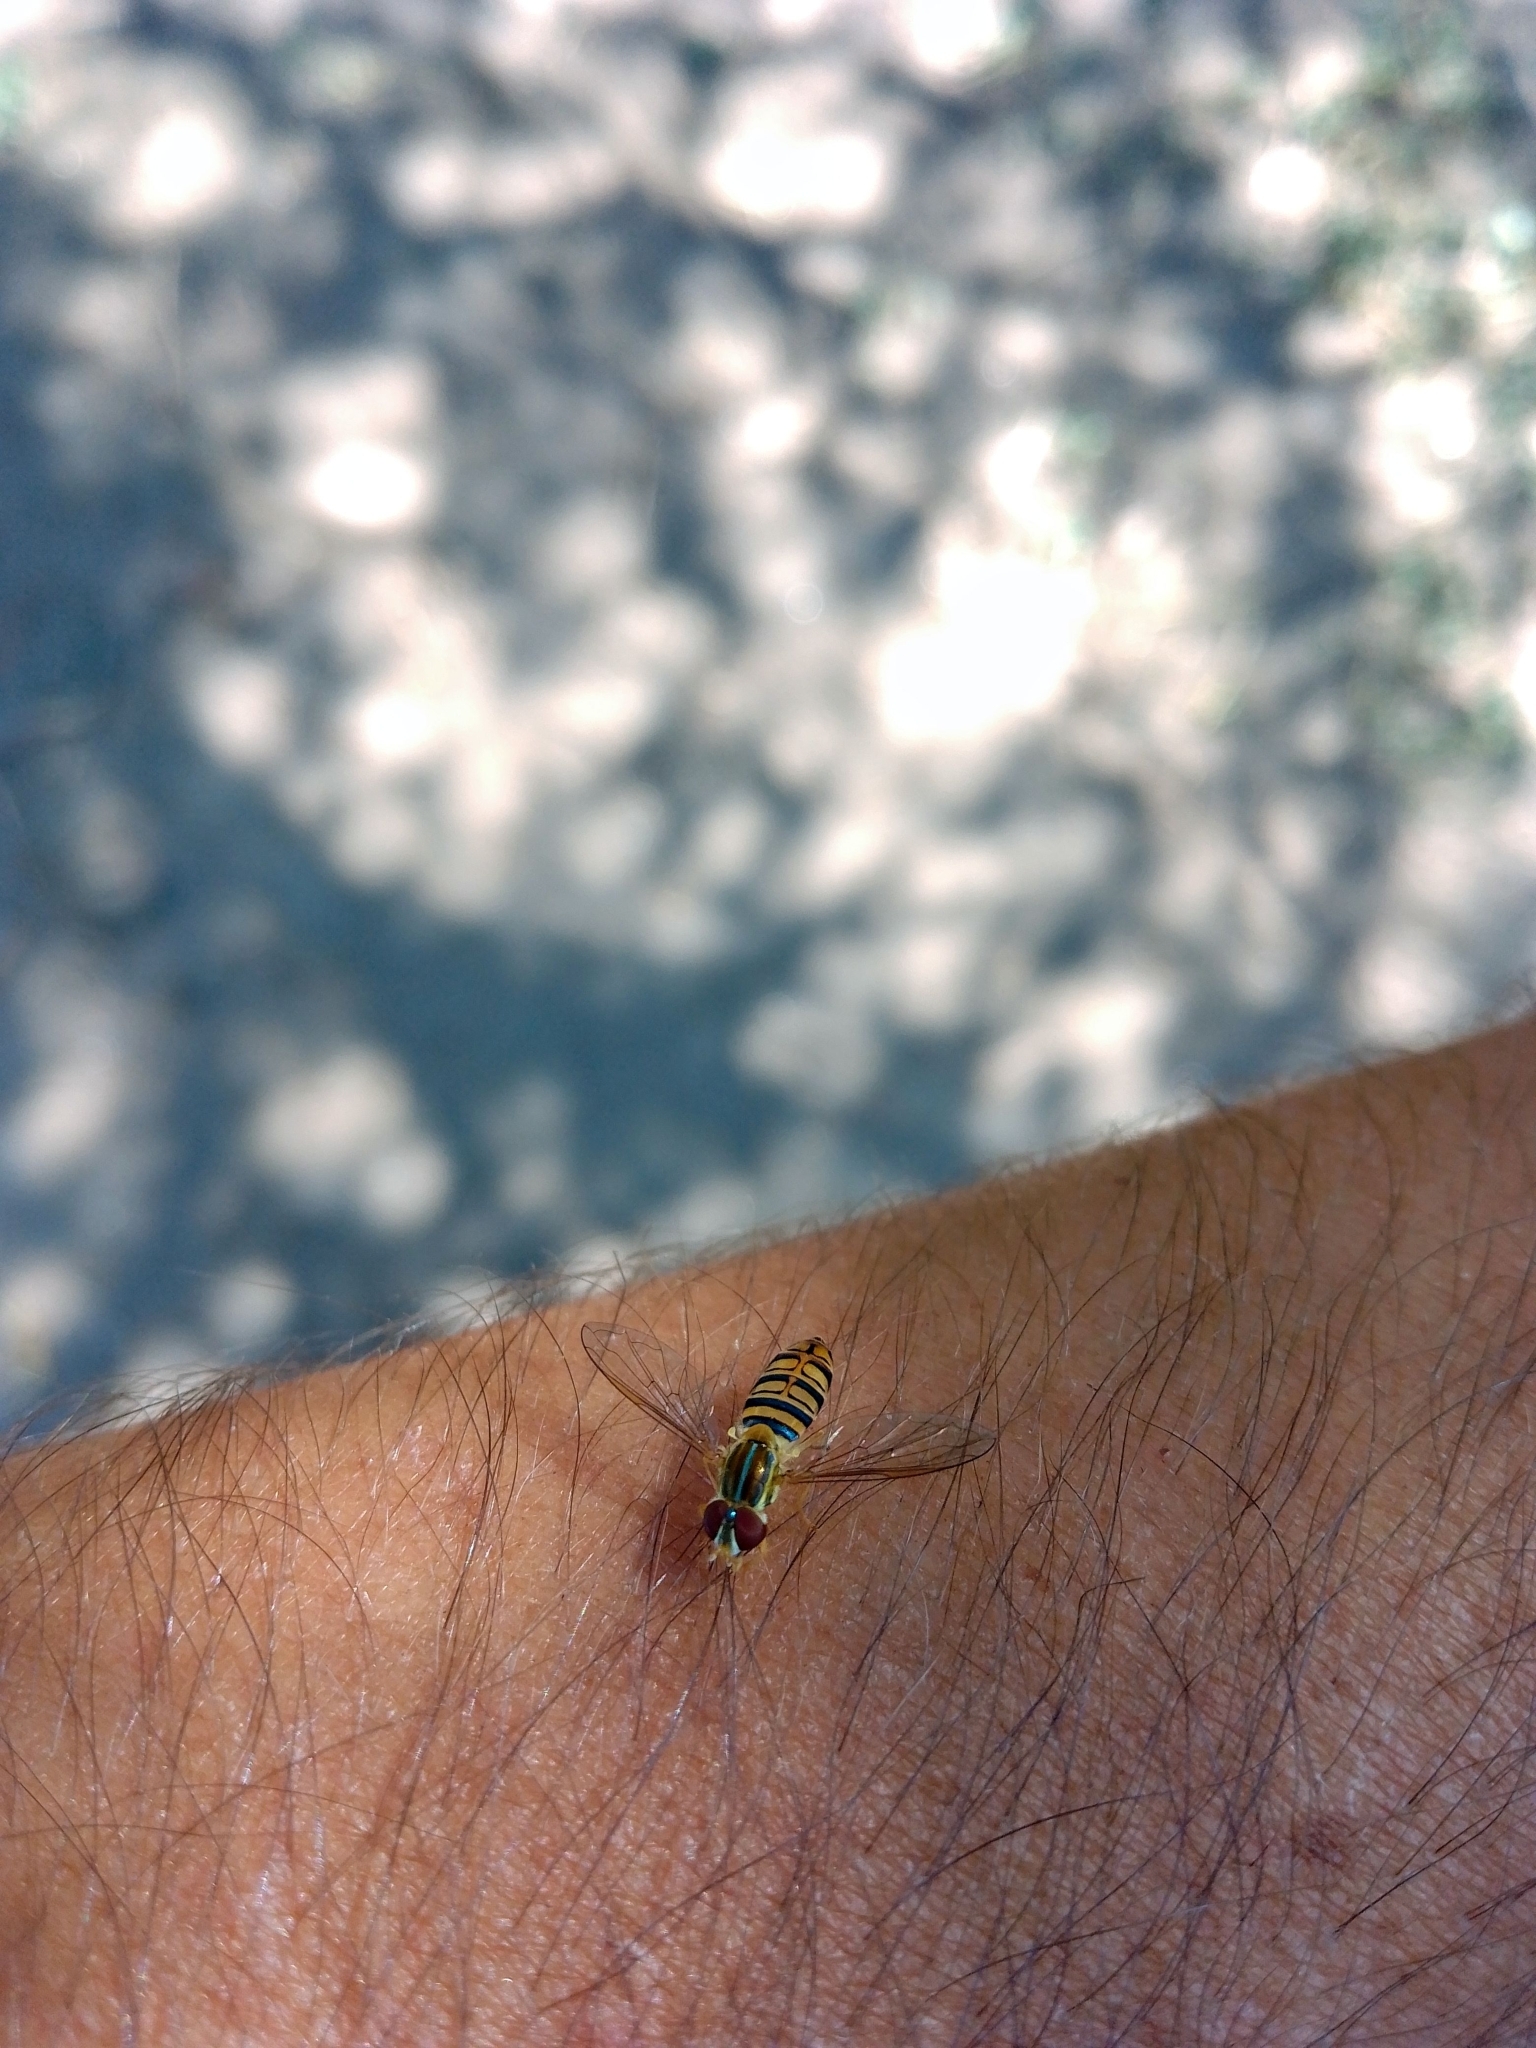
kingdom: Animalia
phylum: Arthropoda
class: Insecta
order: Diptera
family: Syrphidae
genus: Toxomerus
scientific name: Toxomerus politus
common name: Maize calligrapher
